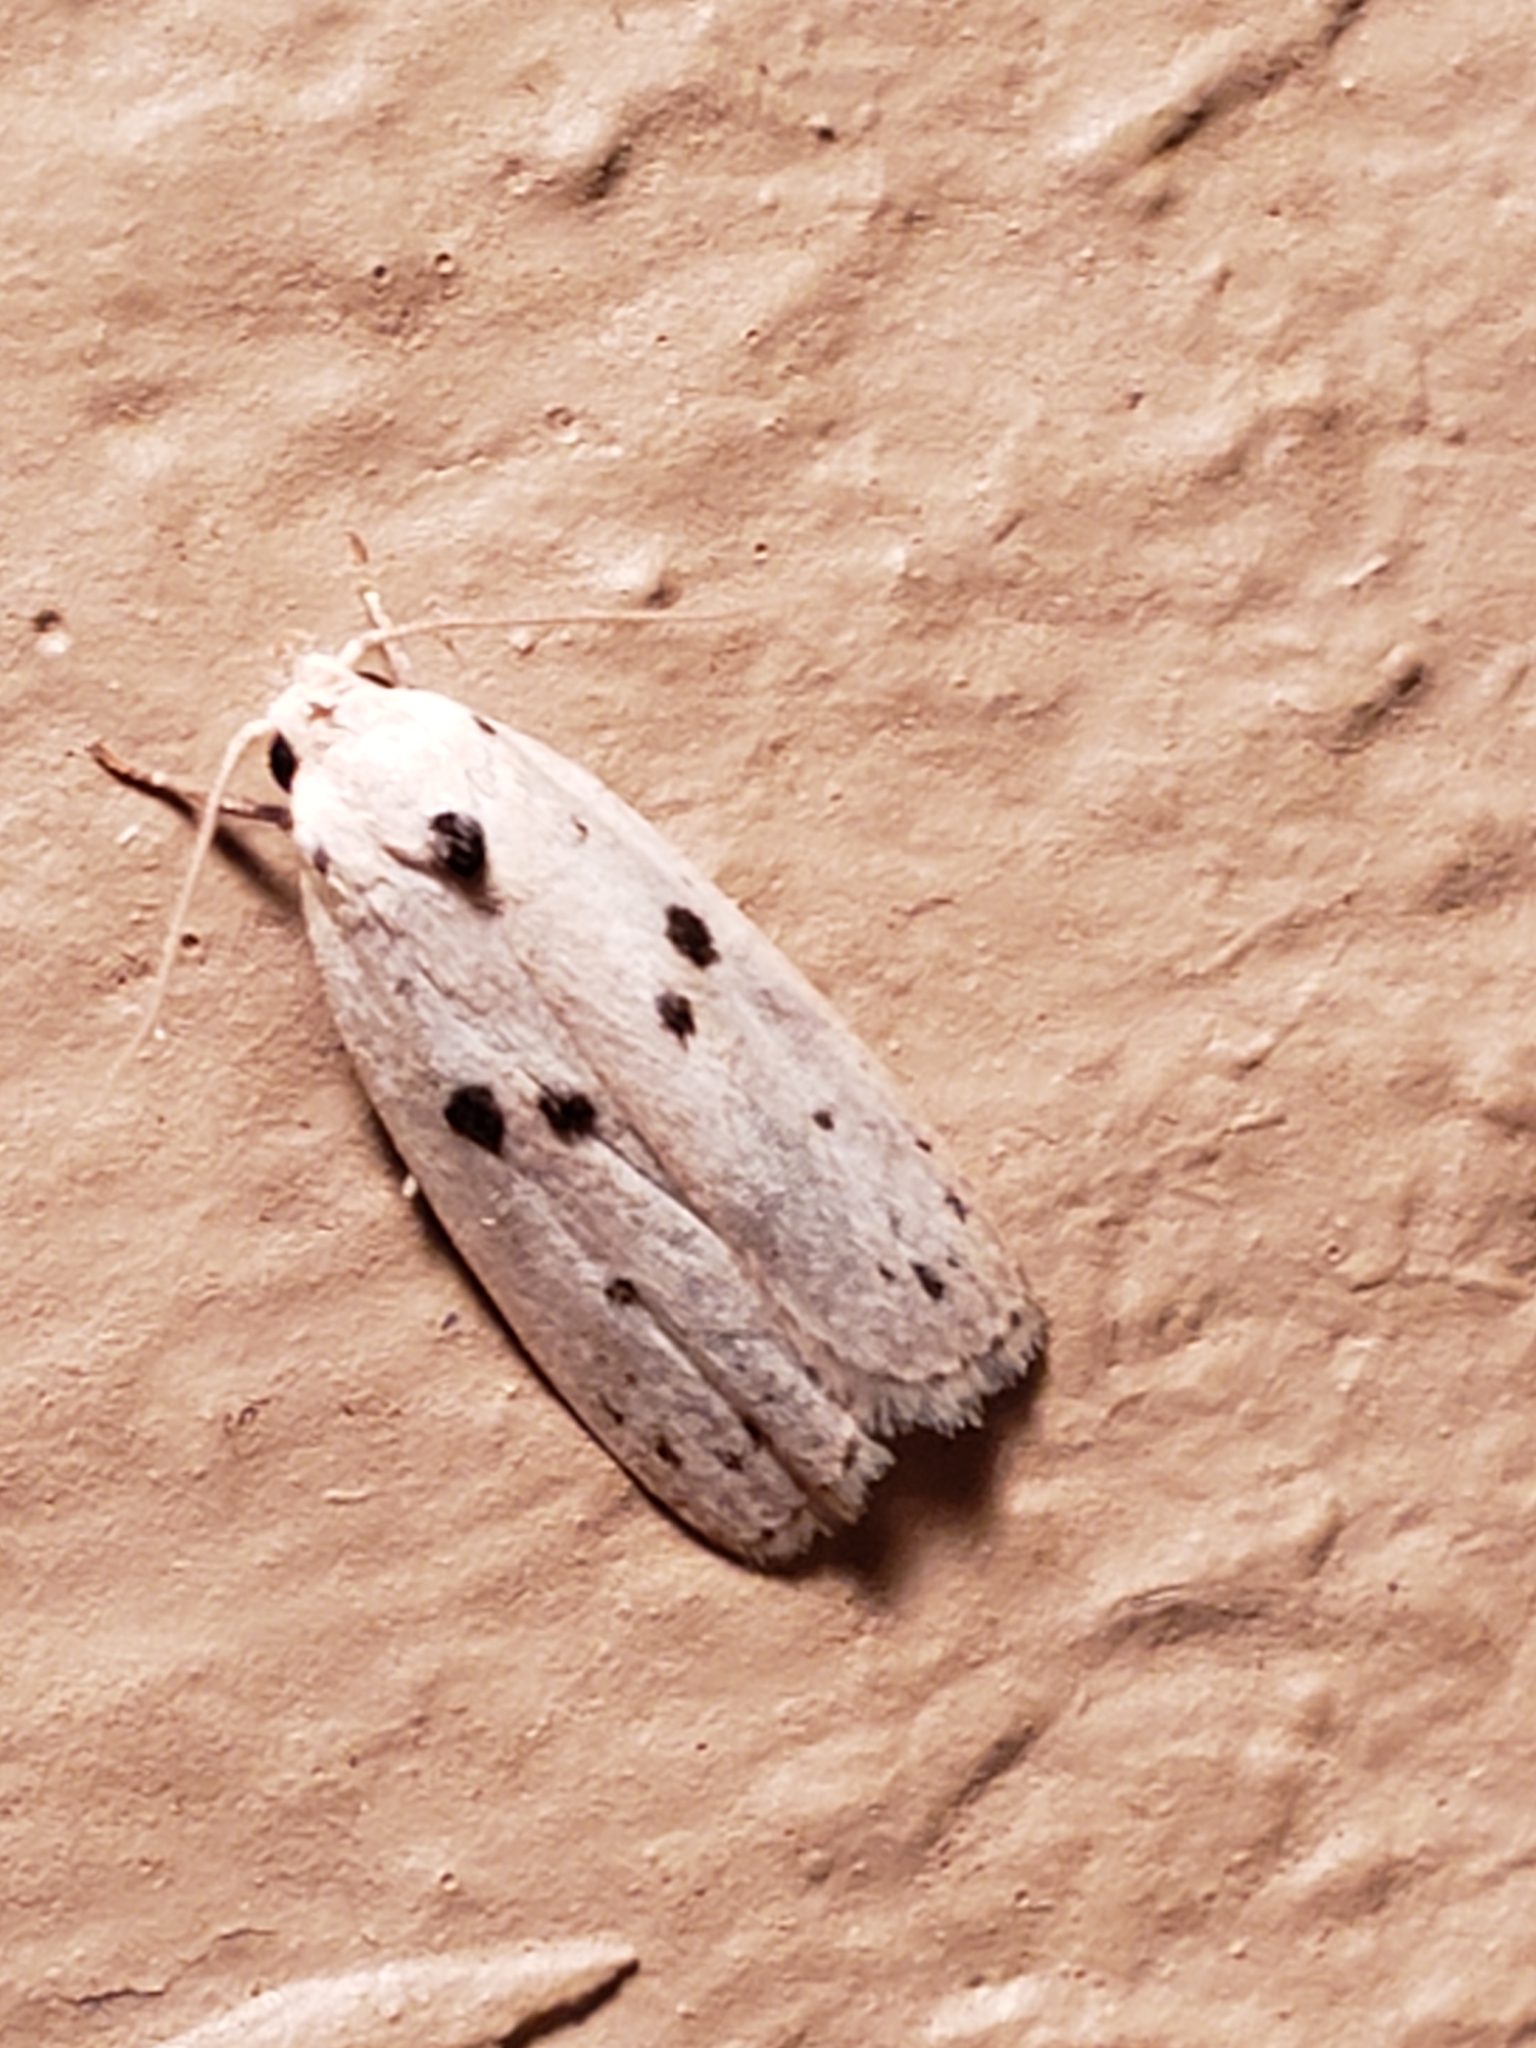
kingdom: Animalia
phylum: Arthropoda
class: Insecta
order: Lepidoptera
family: Peleopodidae
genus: Scythropiodes
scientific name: Scythropiodes issikii
